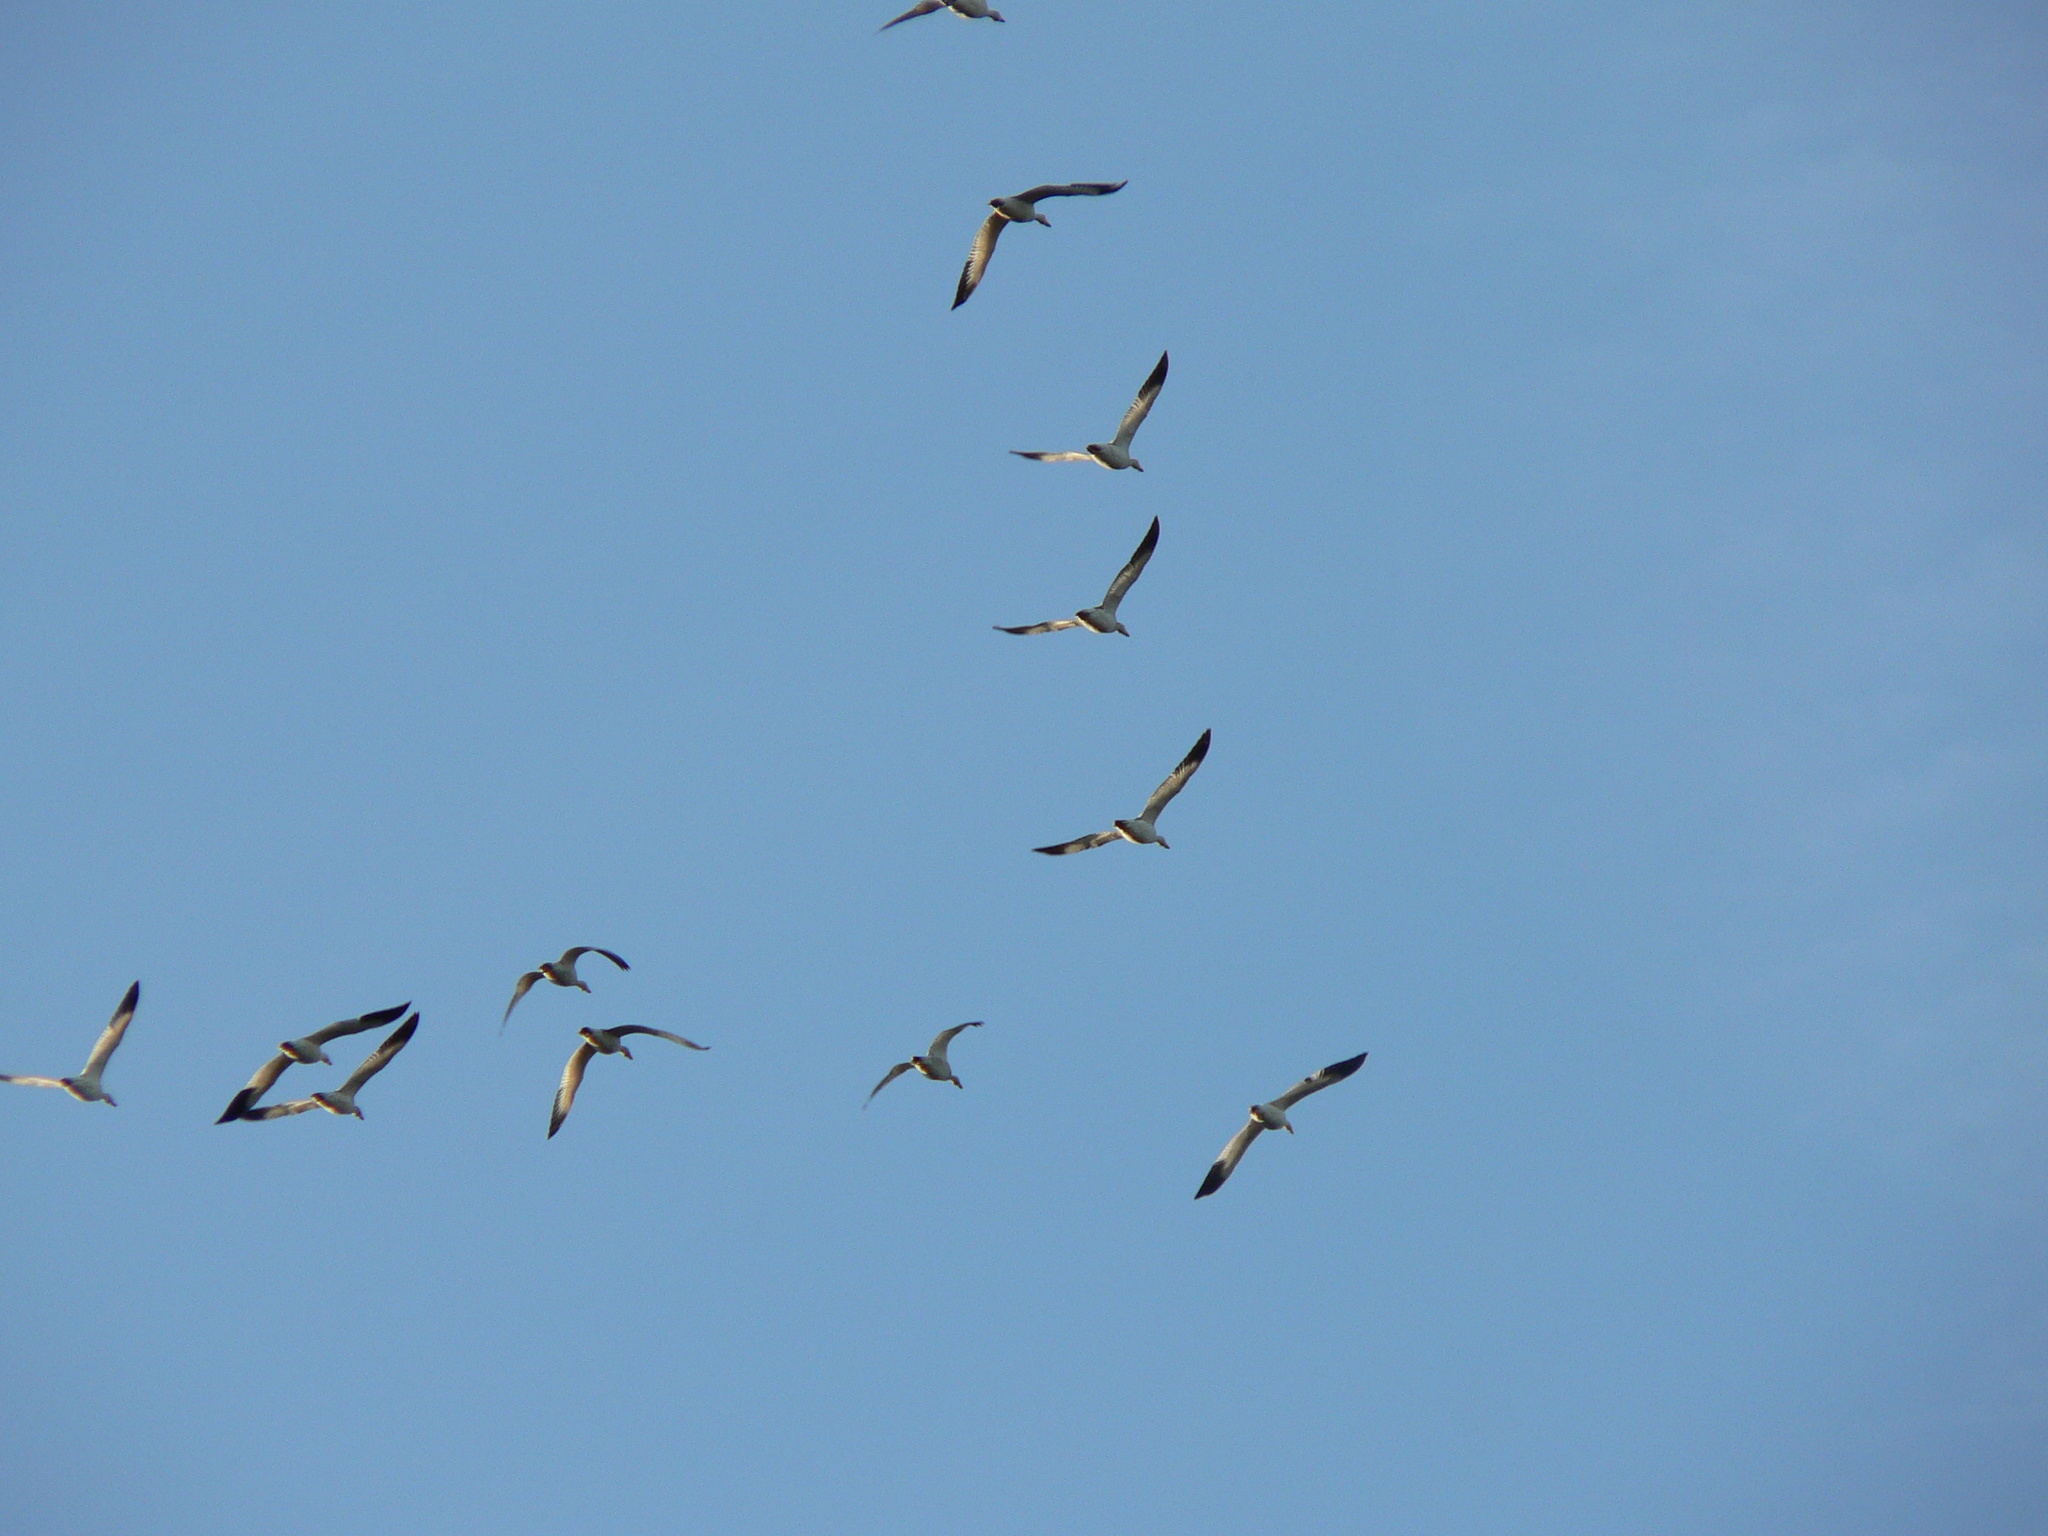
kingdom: Animalia
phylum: Chordata
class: Aves
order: Anseriformes
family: Anatidae
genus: Anser
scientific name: Anser caerulescens
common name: Snow goose
